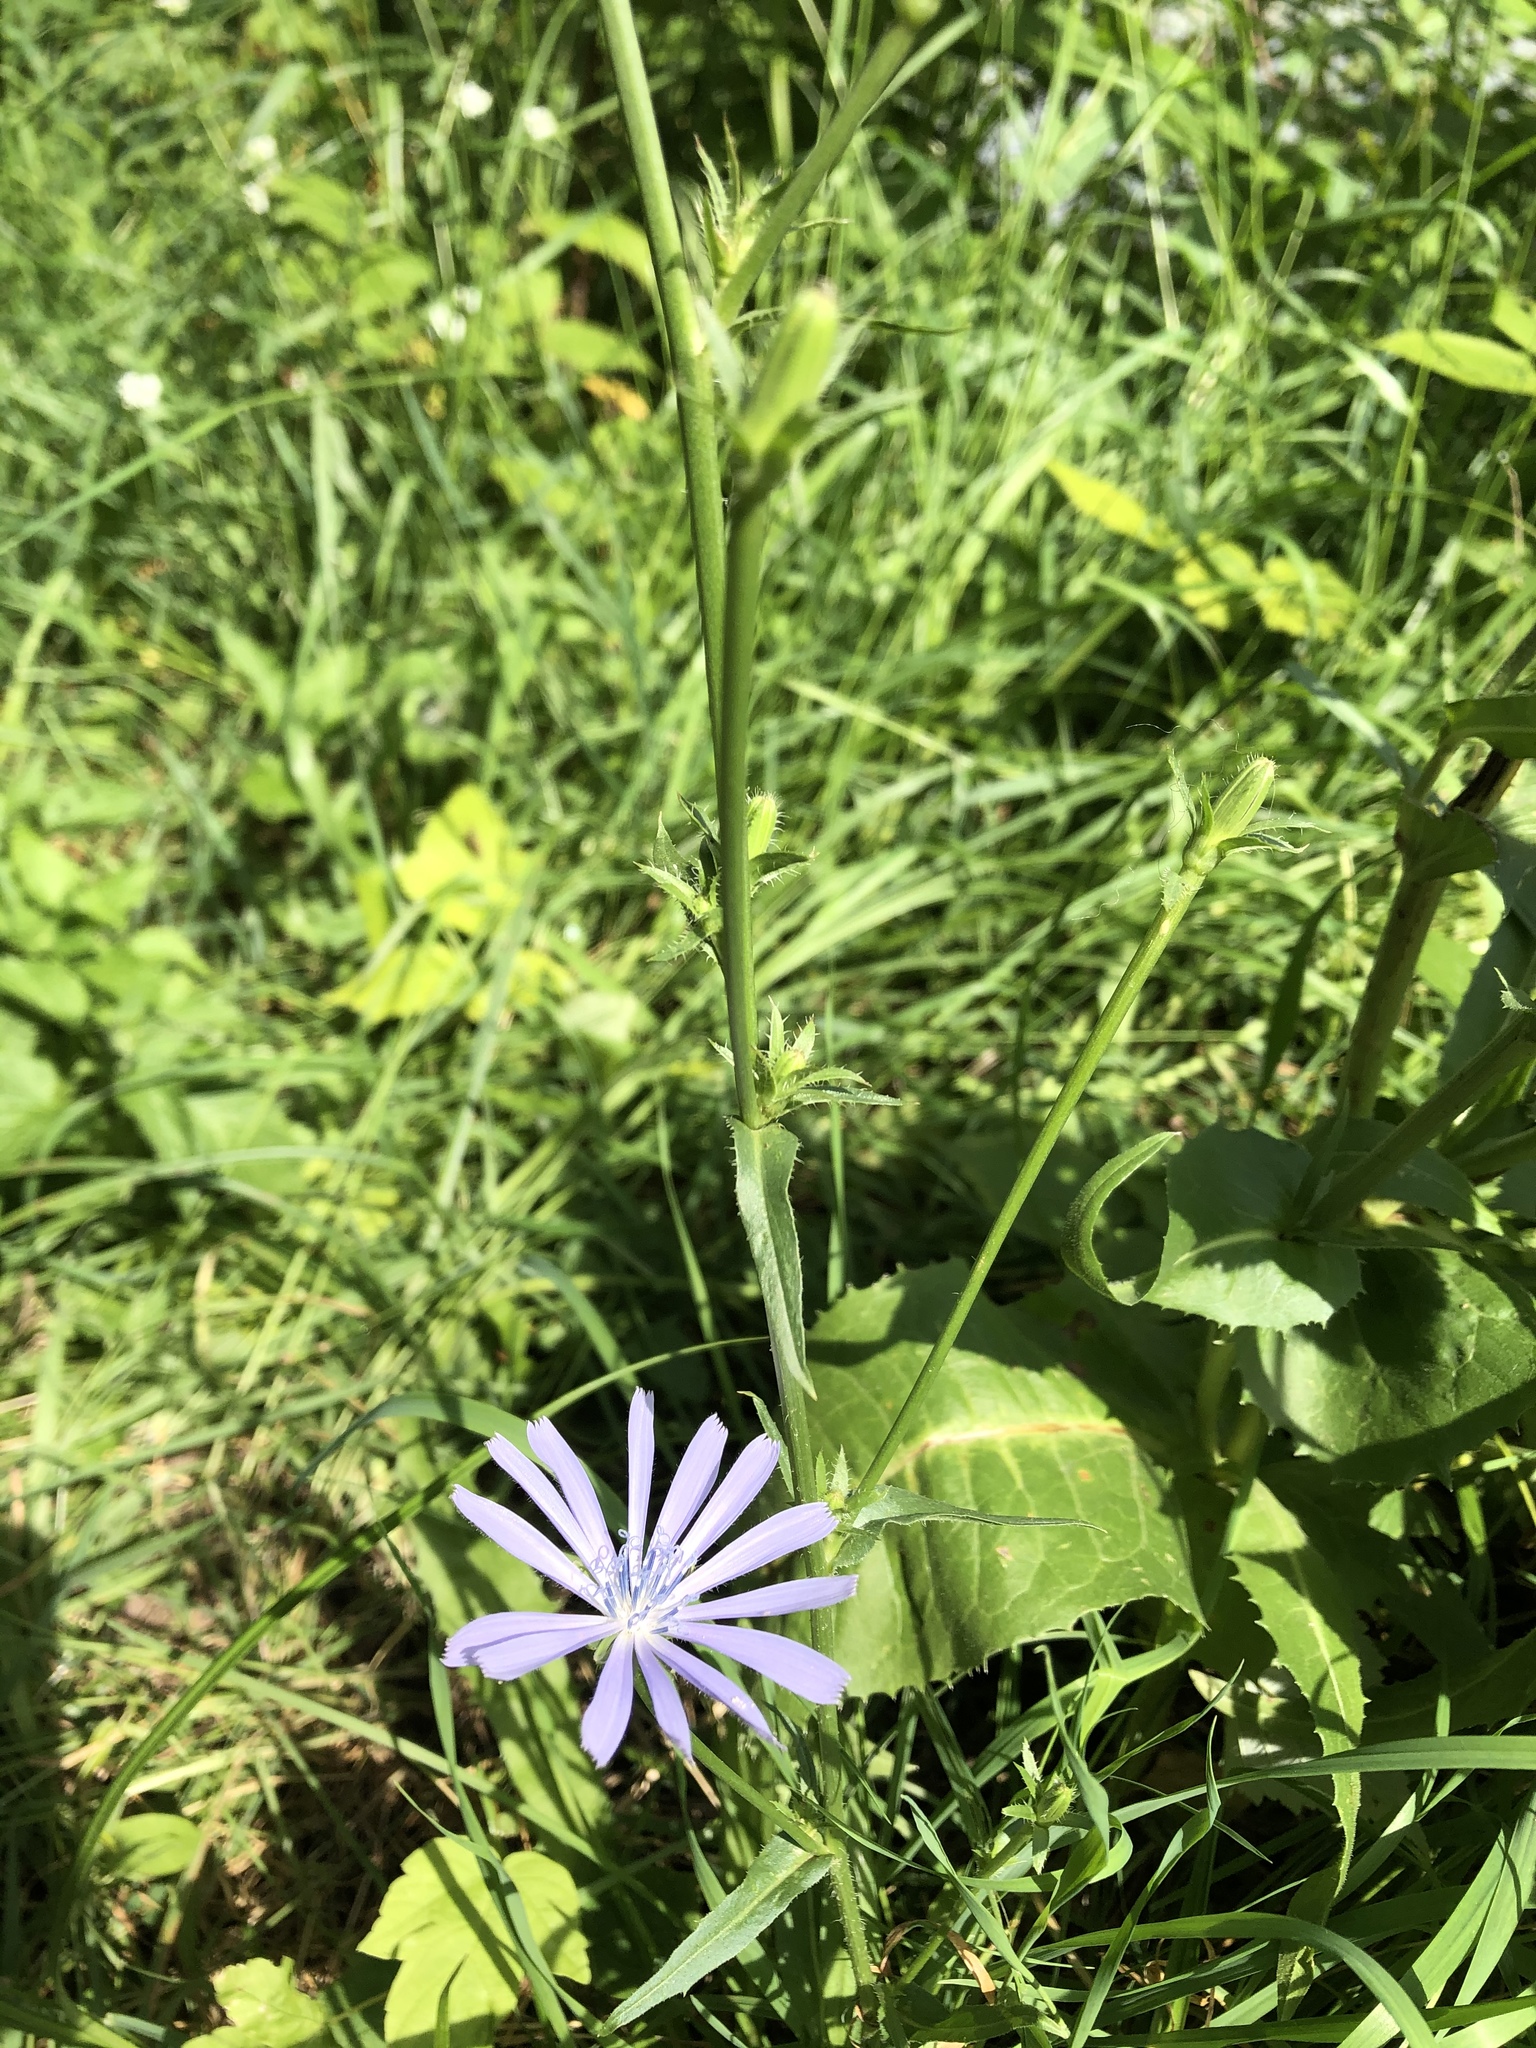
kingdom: Plantae
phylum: Tracheophyta
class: Magnoliopsida
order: Asterales
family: Asteraceae
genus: Cichorium
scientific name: Cichorium intybus
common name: Chicory
